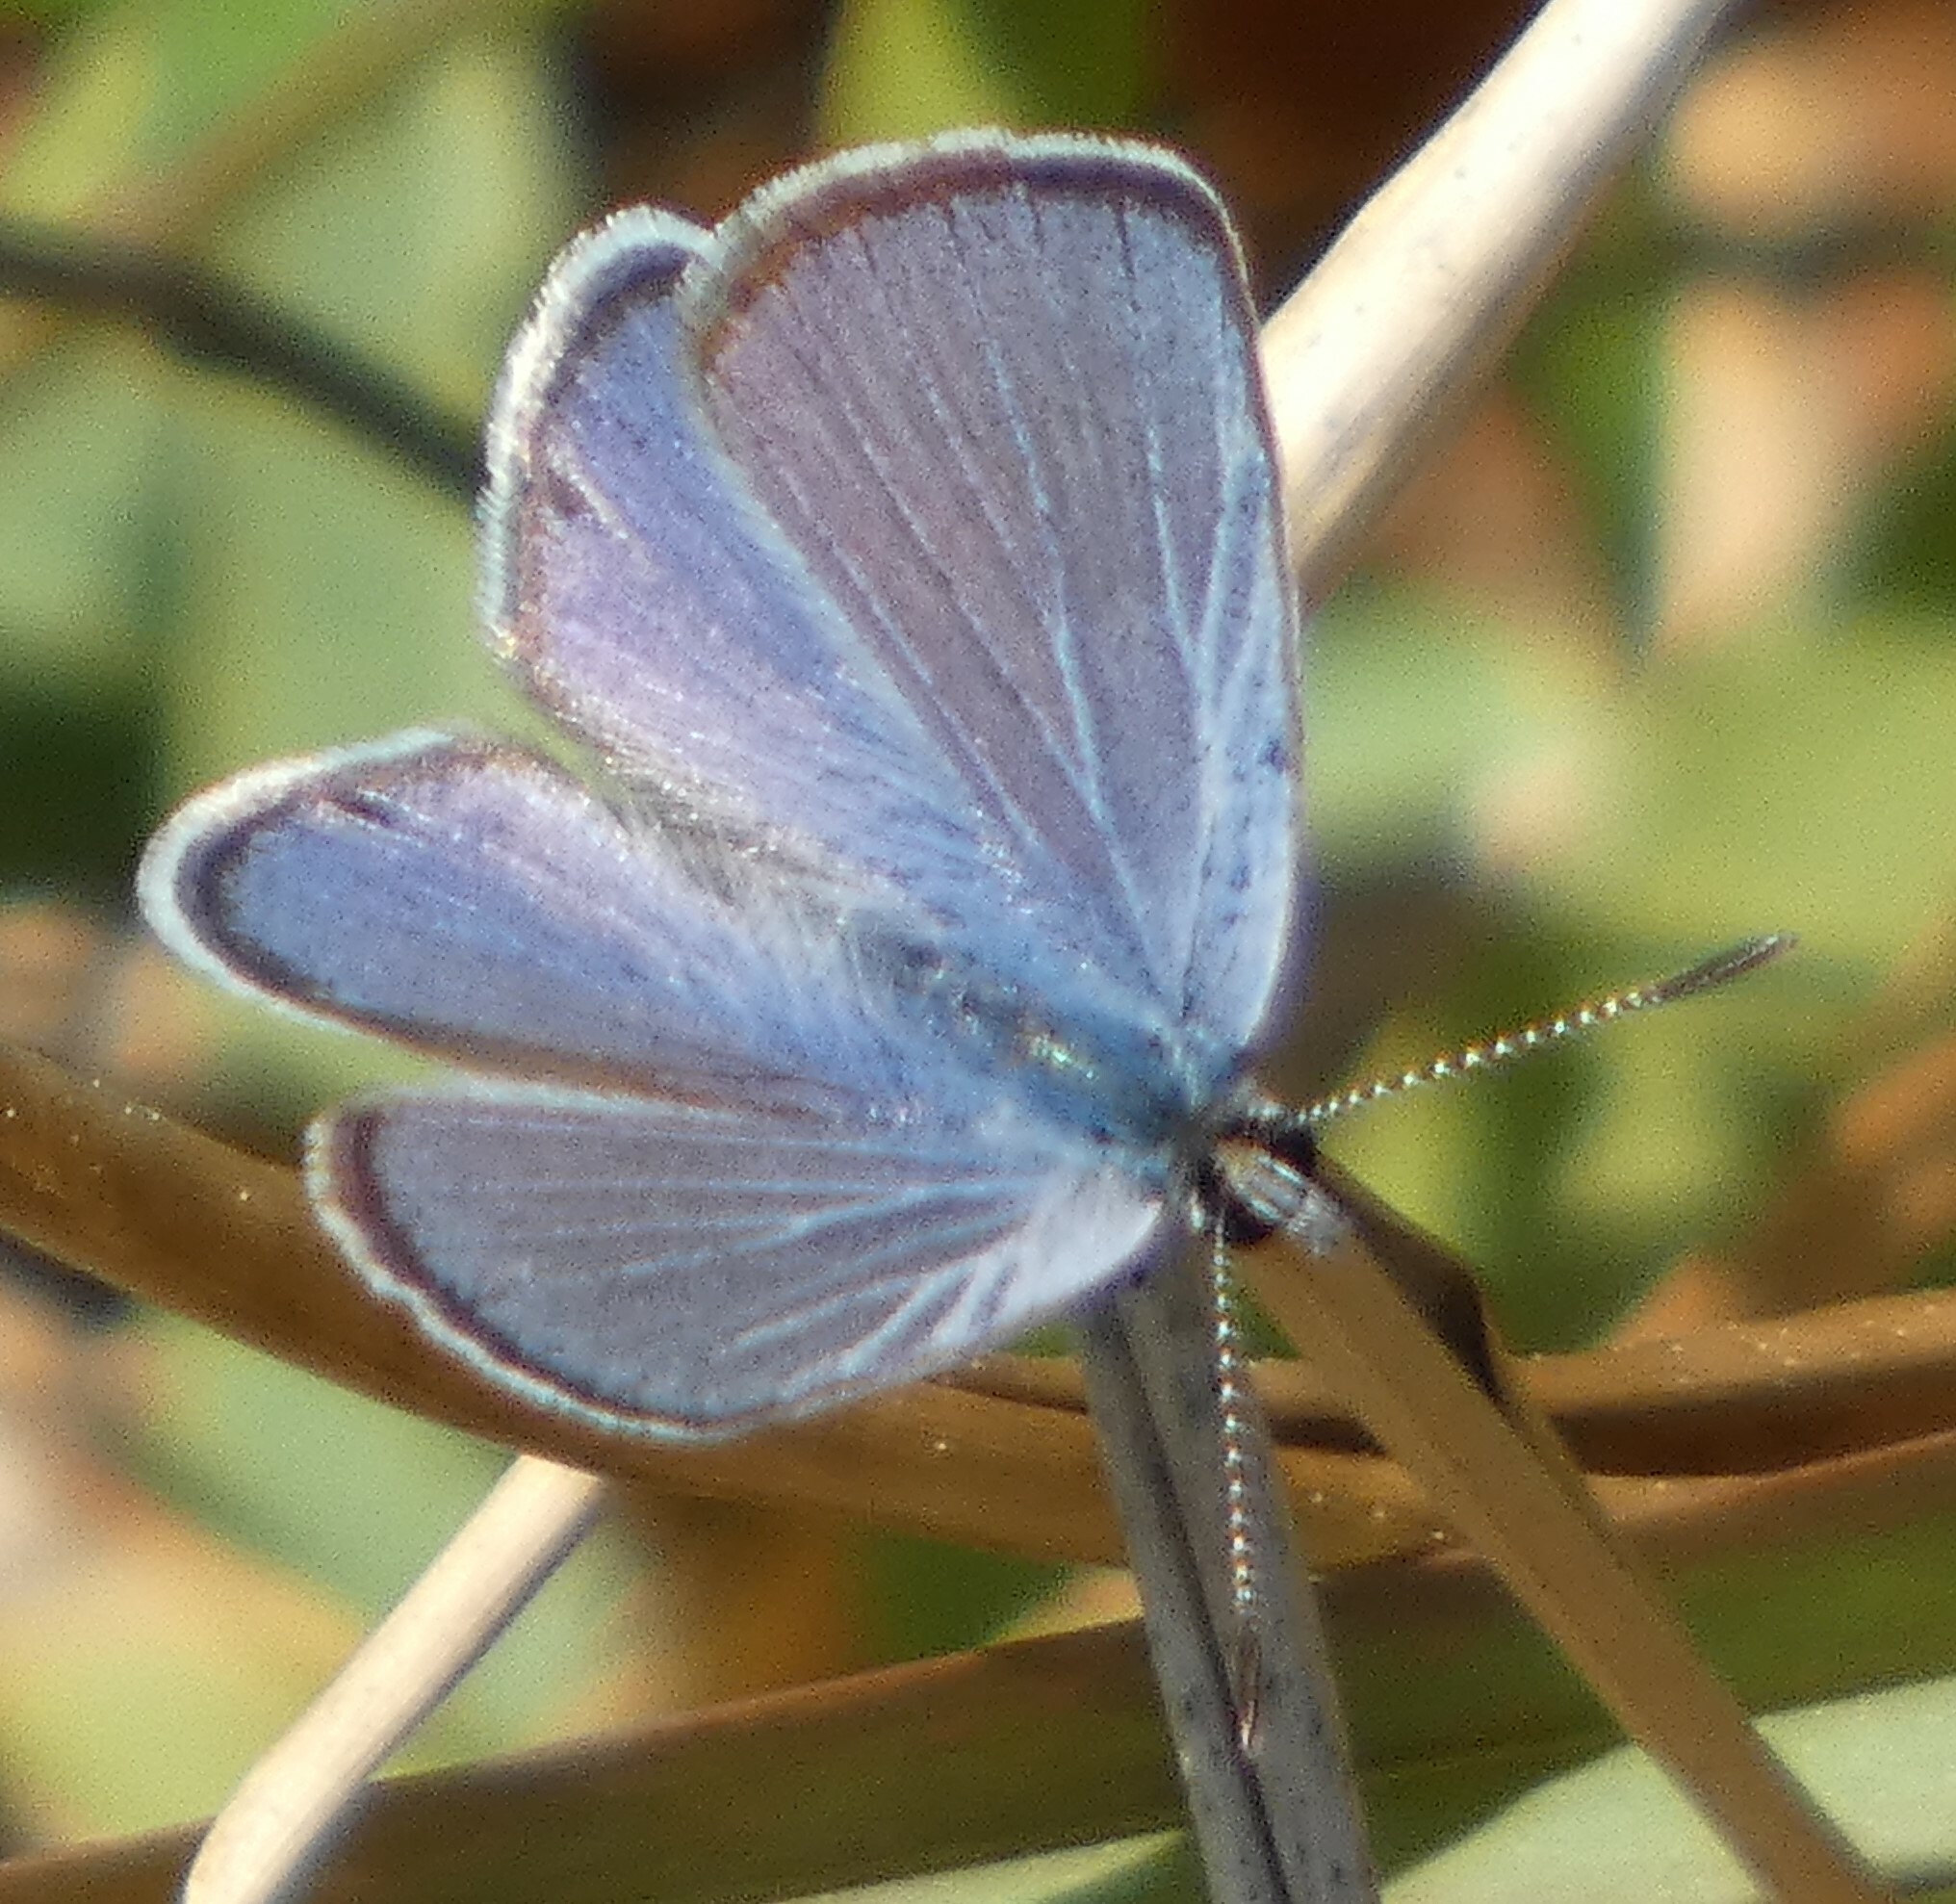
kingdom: Animalia
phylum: Arthropoda
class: Insecta
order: Lepidoptera
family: Lycaenidae
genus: Hemiargus
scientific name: Hemiargus ceraunus
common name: Ceraunus blue
